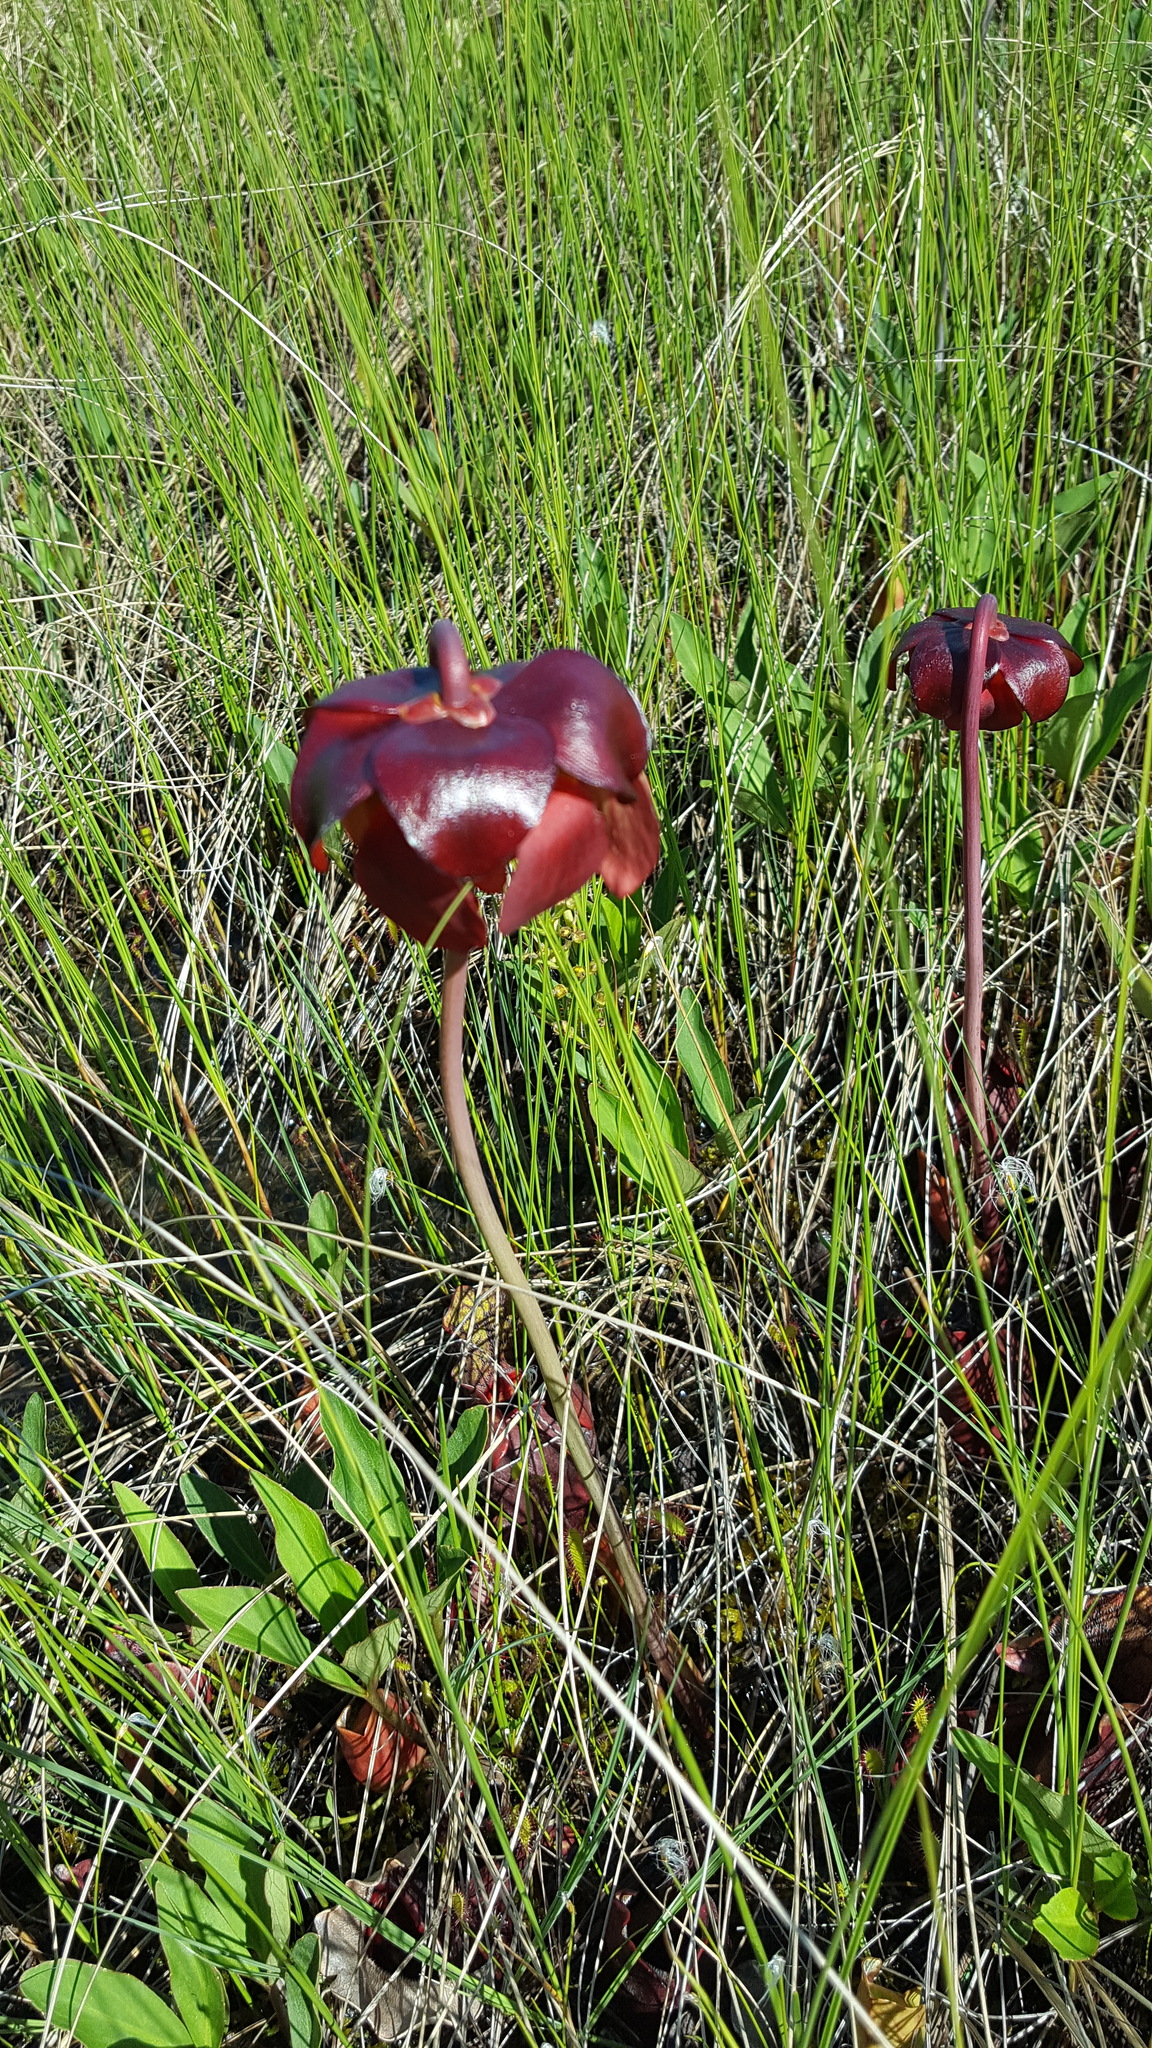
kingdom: Plantae
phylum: Tracheophyta
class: Magnoliopsida
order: Ericales
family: Sarraceniaceae
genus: Sarracenia
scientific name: Sarracenia purpurea
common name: Pitcherplant
